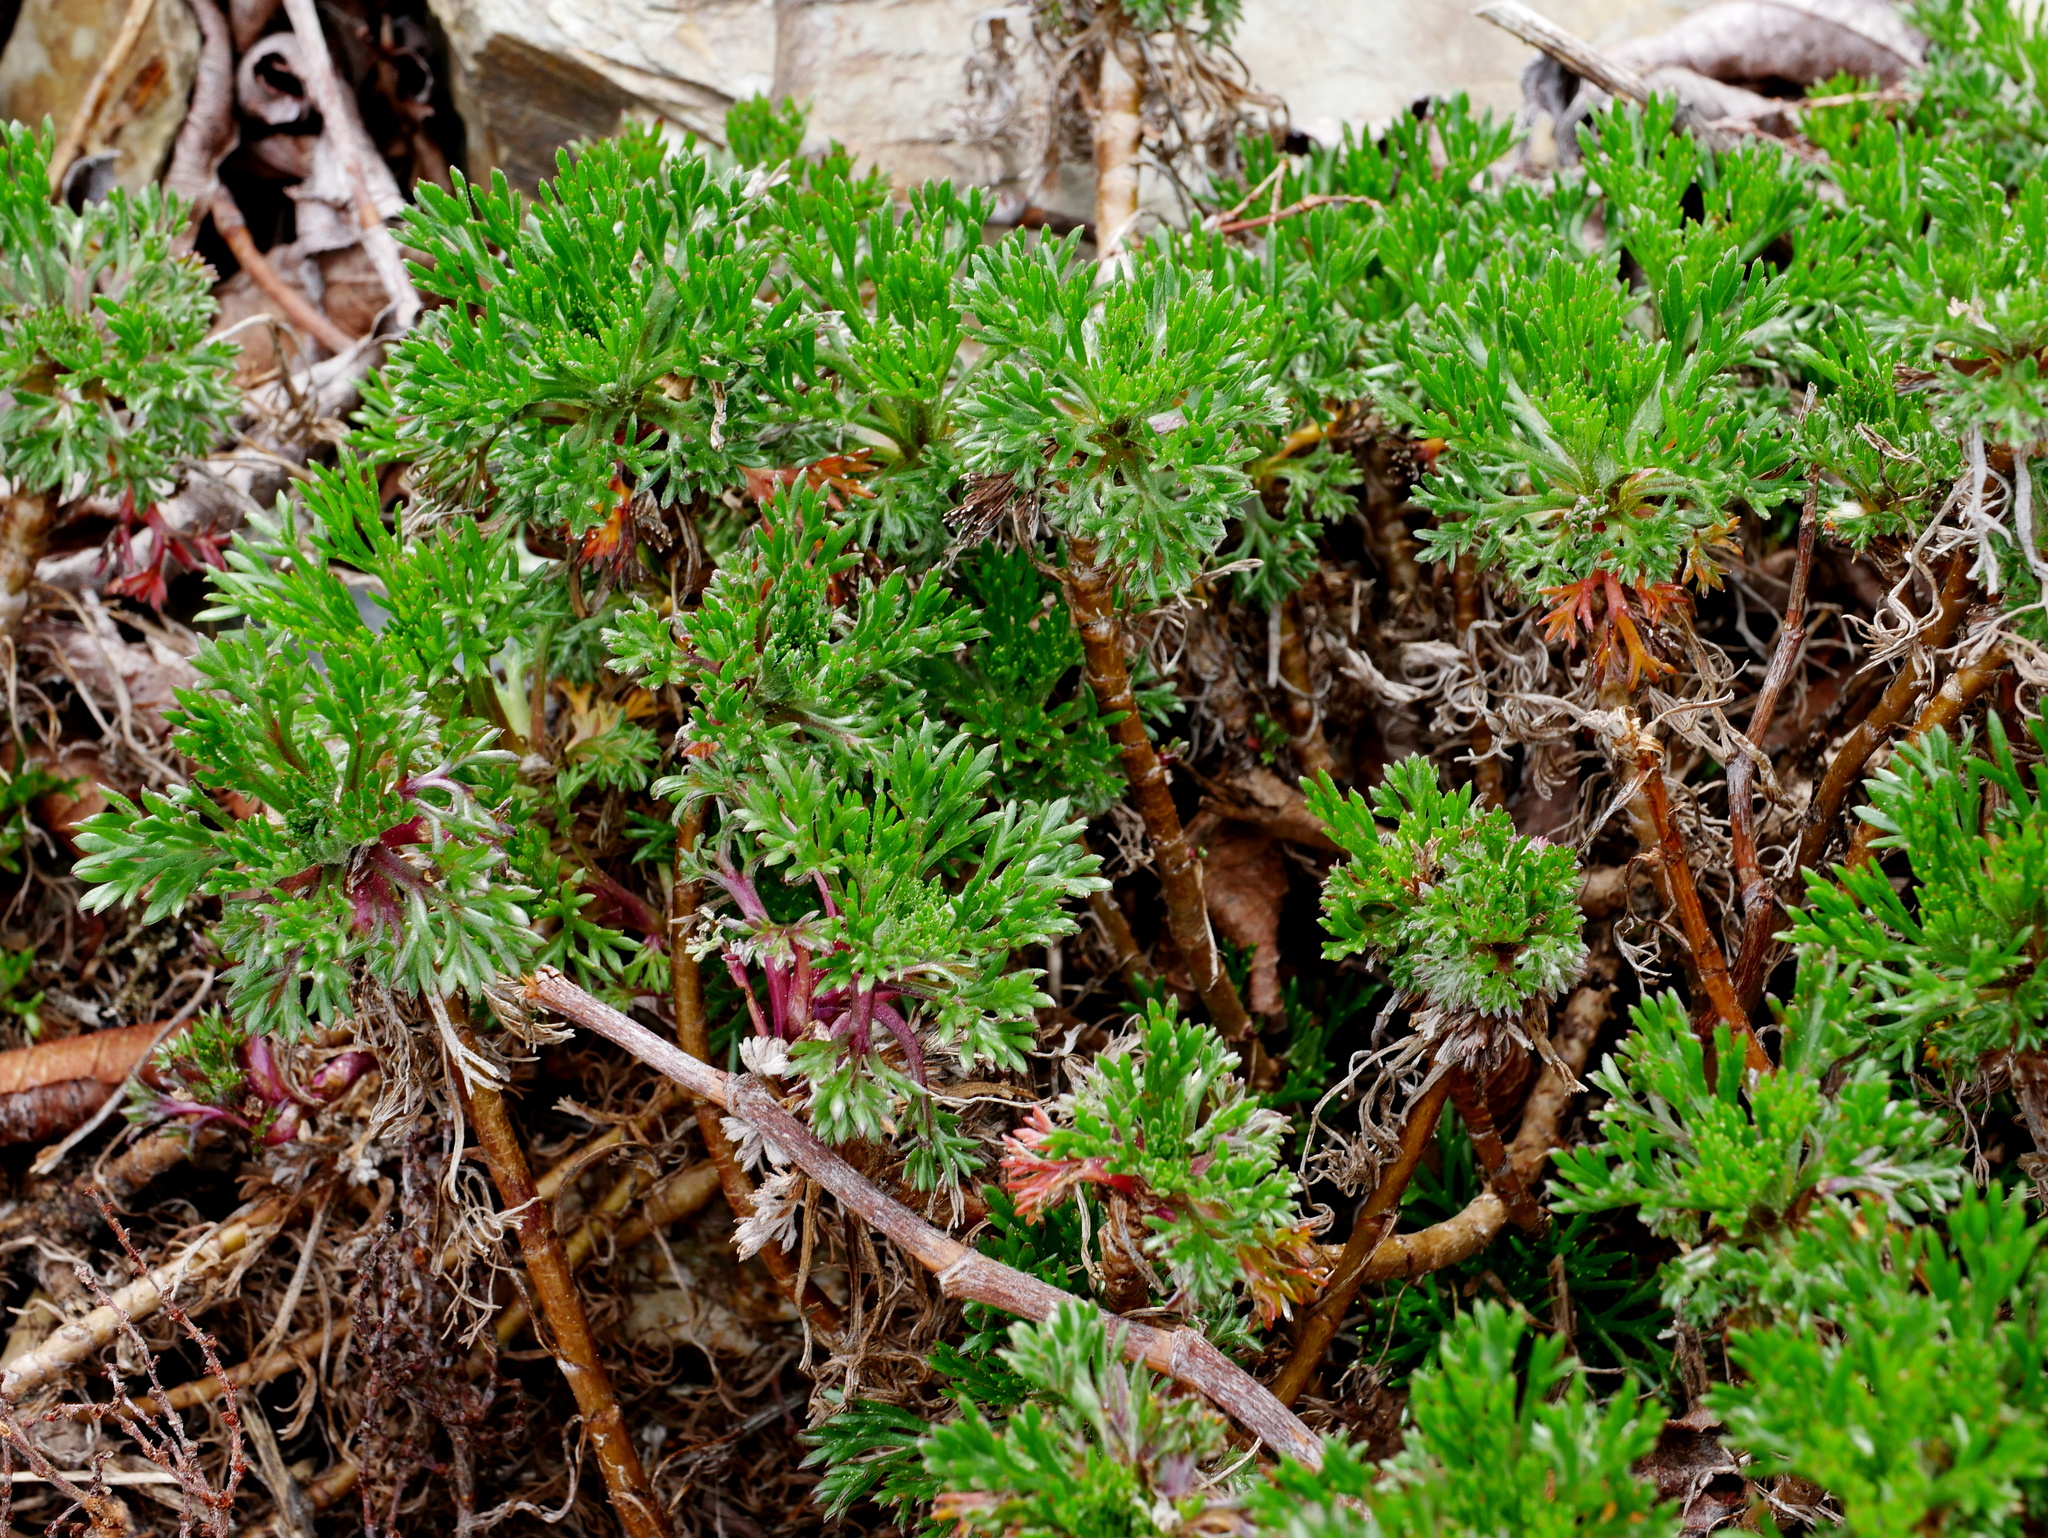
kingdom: Plantae
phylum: Tracheophyta
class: Magnoliopsida
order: Asterales
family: Asteraceae
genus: Artemisia
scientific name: Artemisia morrisonensis
